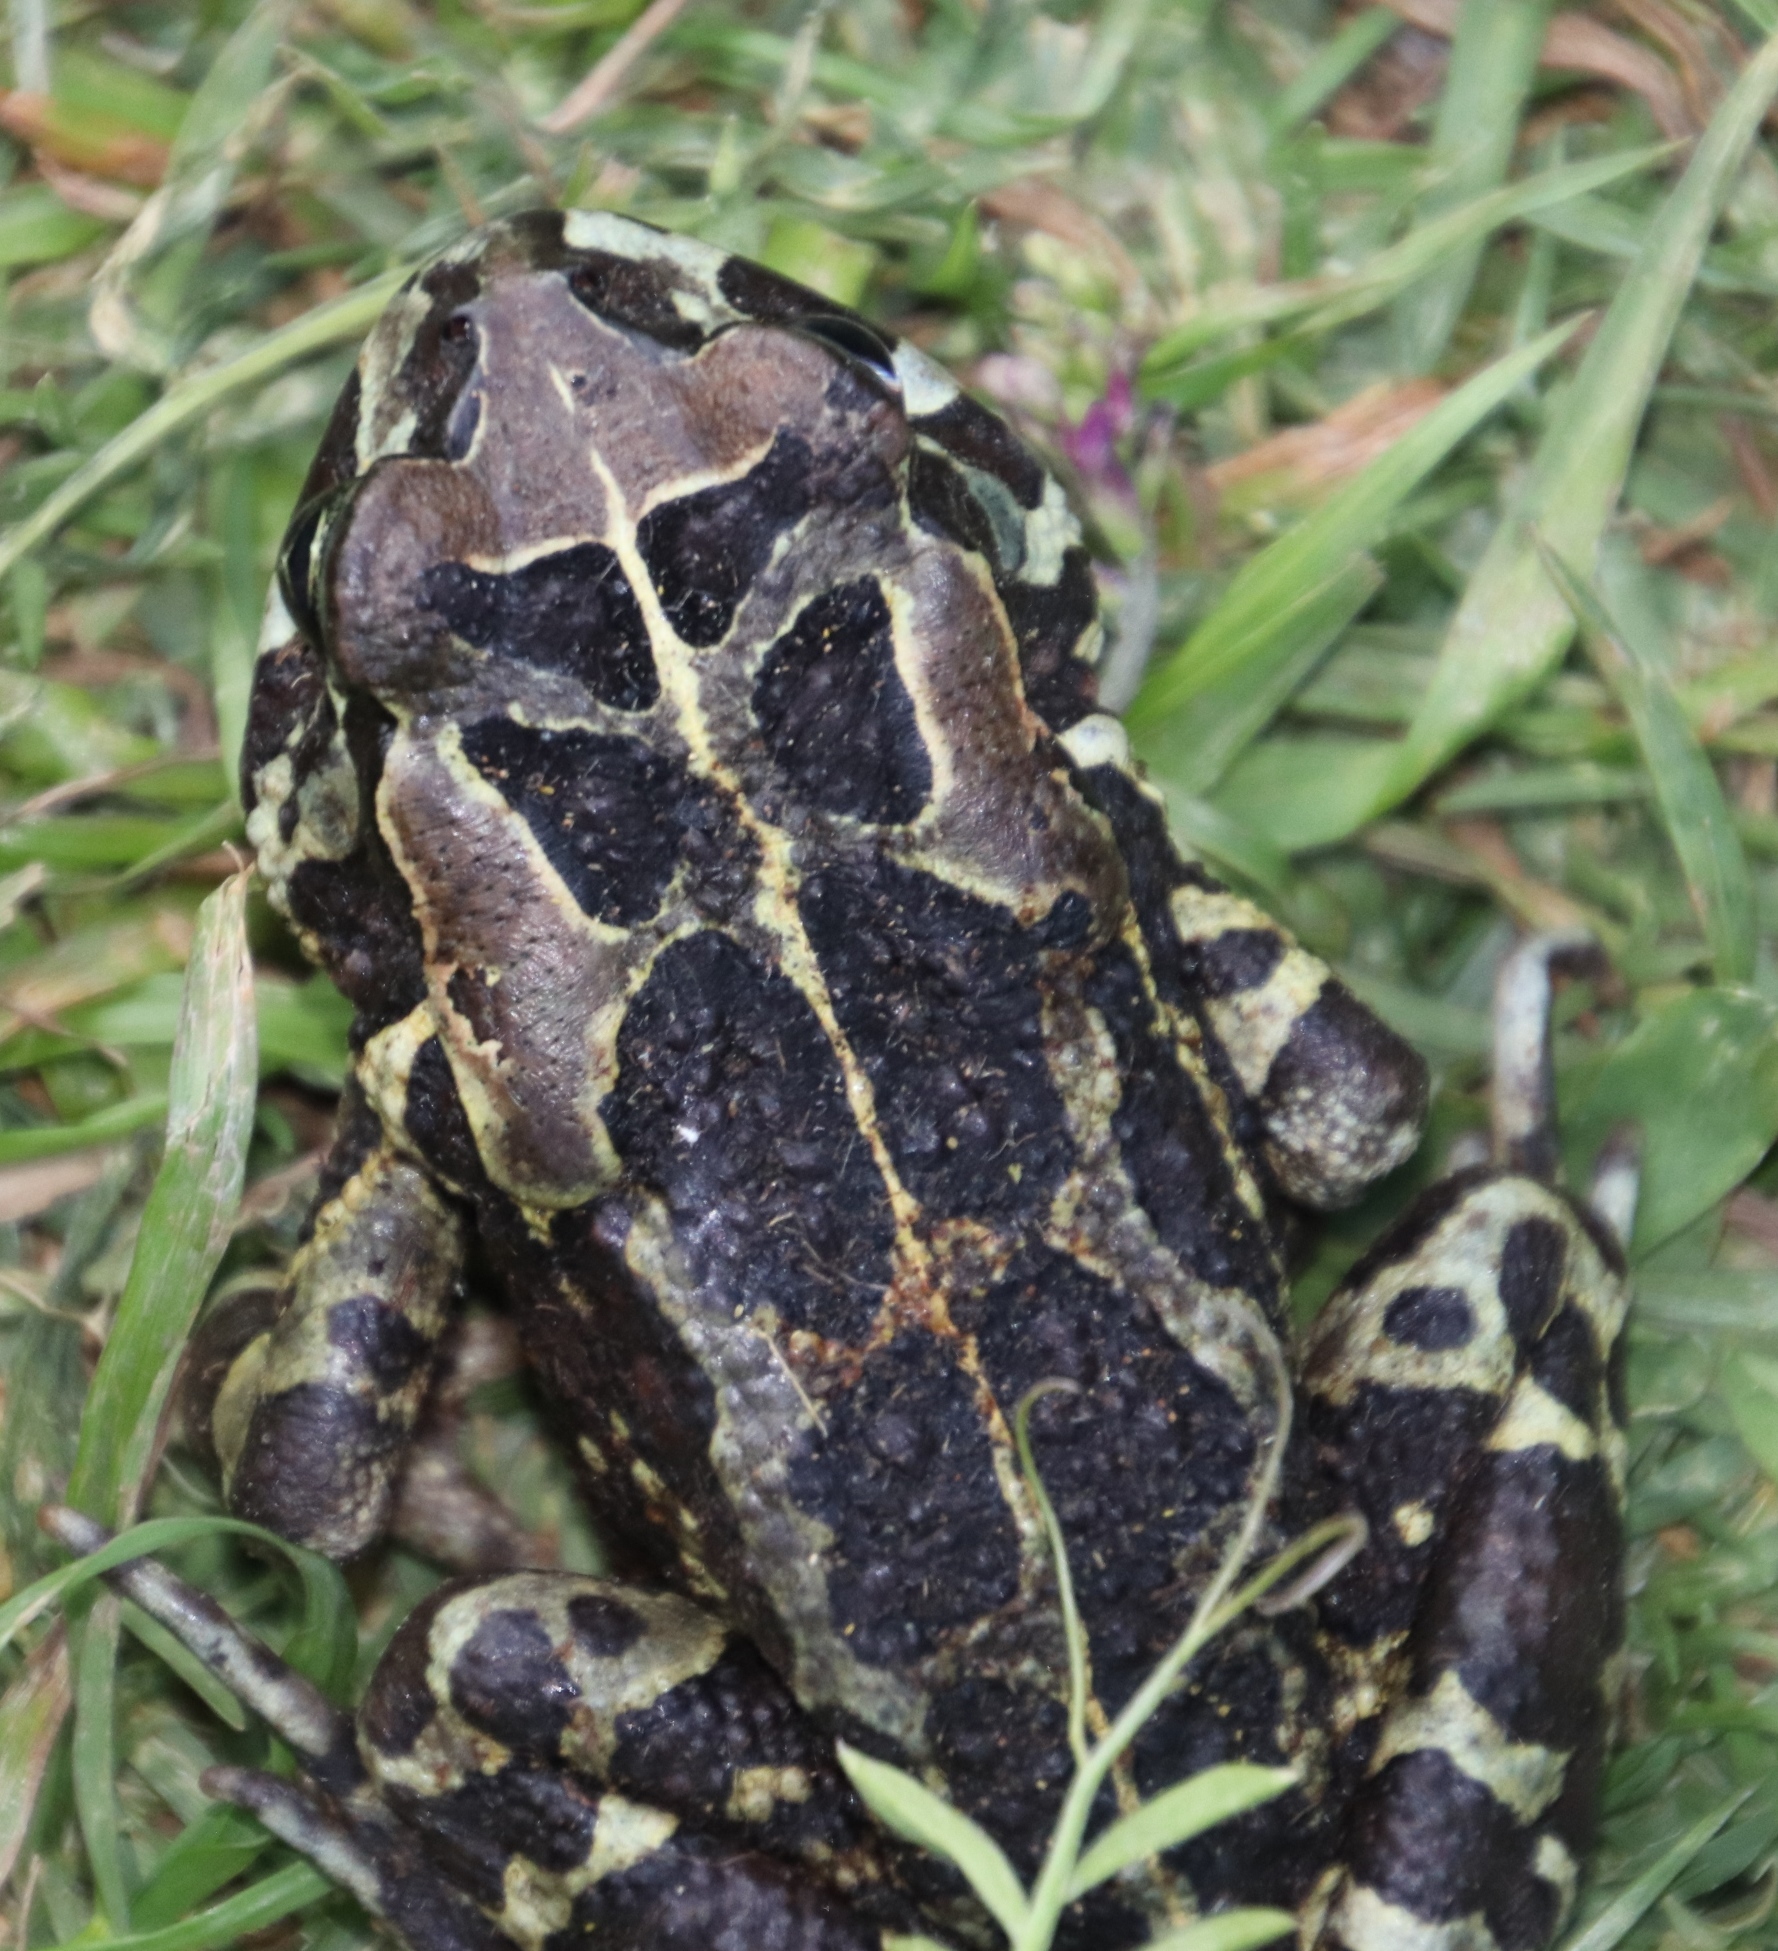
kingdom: Animalia
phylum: Chordata
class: Amphibia
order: Anura
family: Bufonidae
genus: Sclerophrys
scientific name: Sclerophrys pantherina
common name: Panther toad
